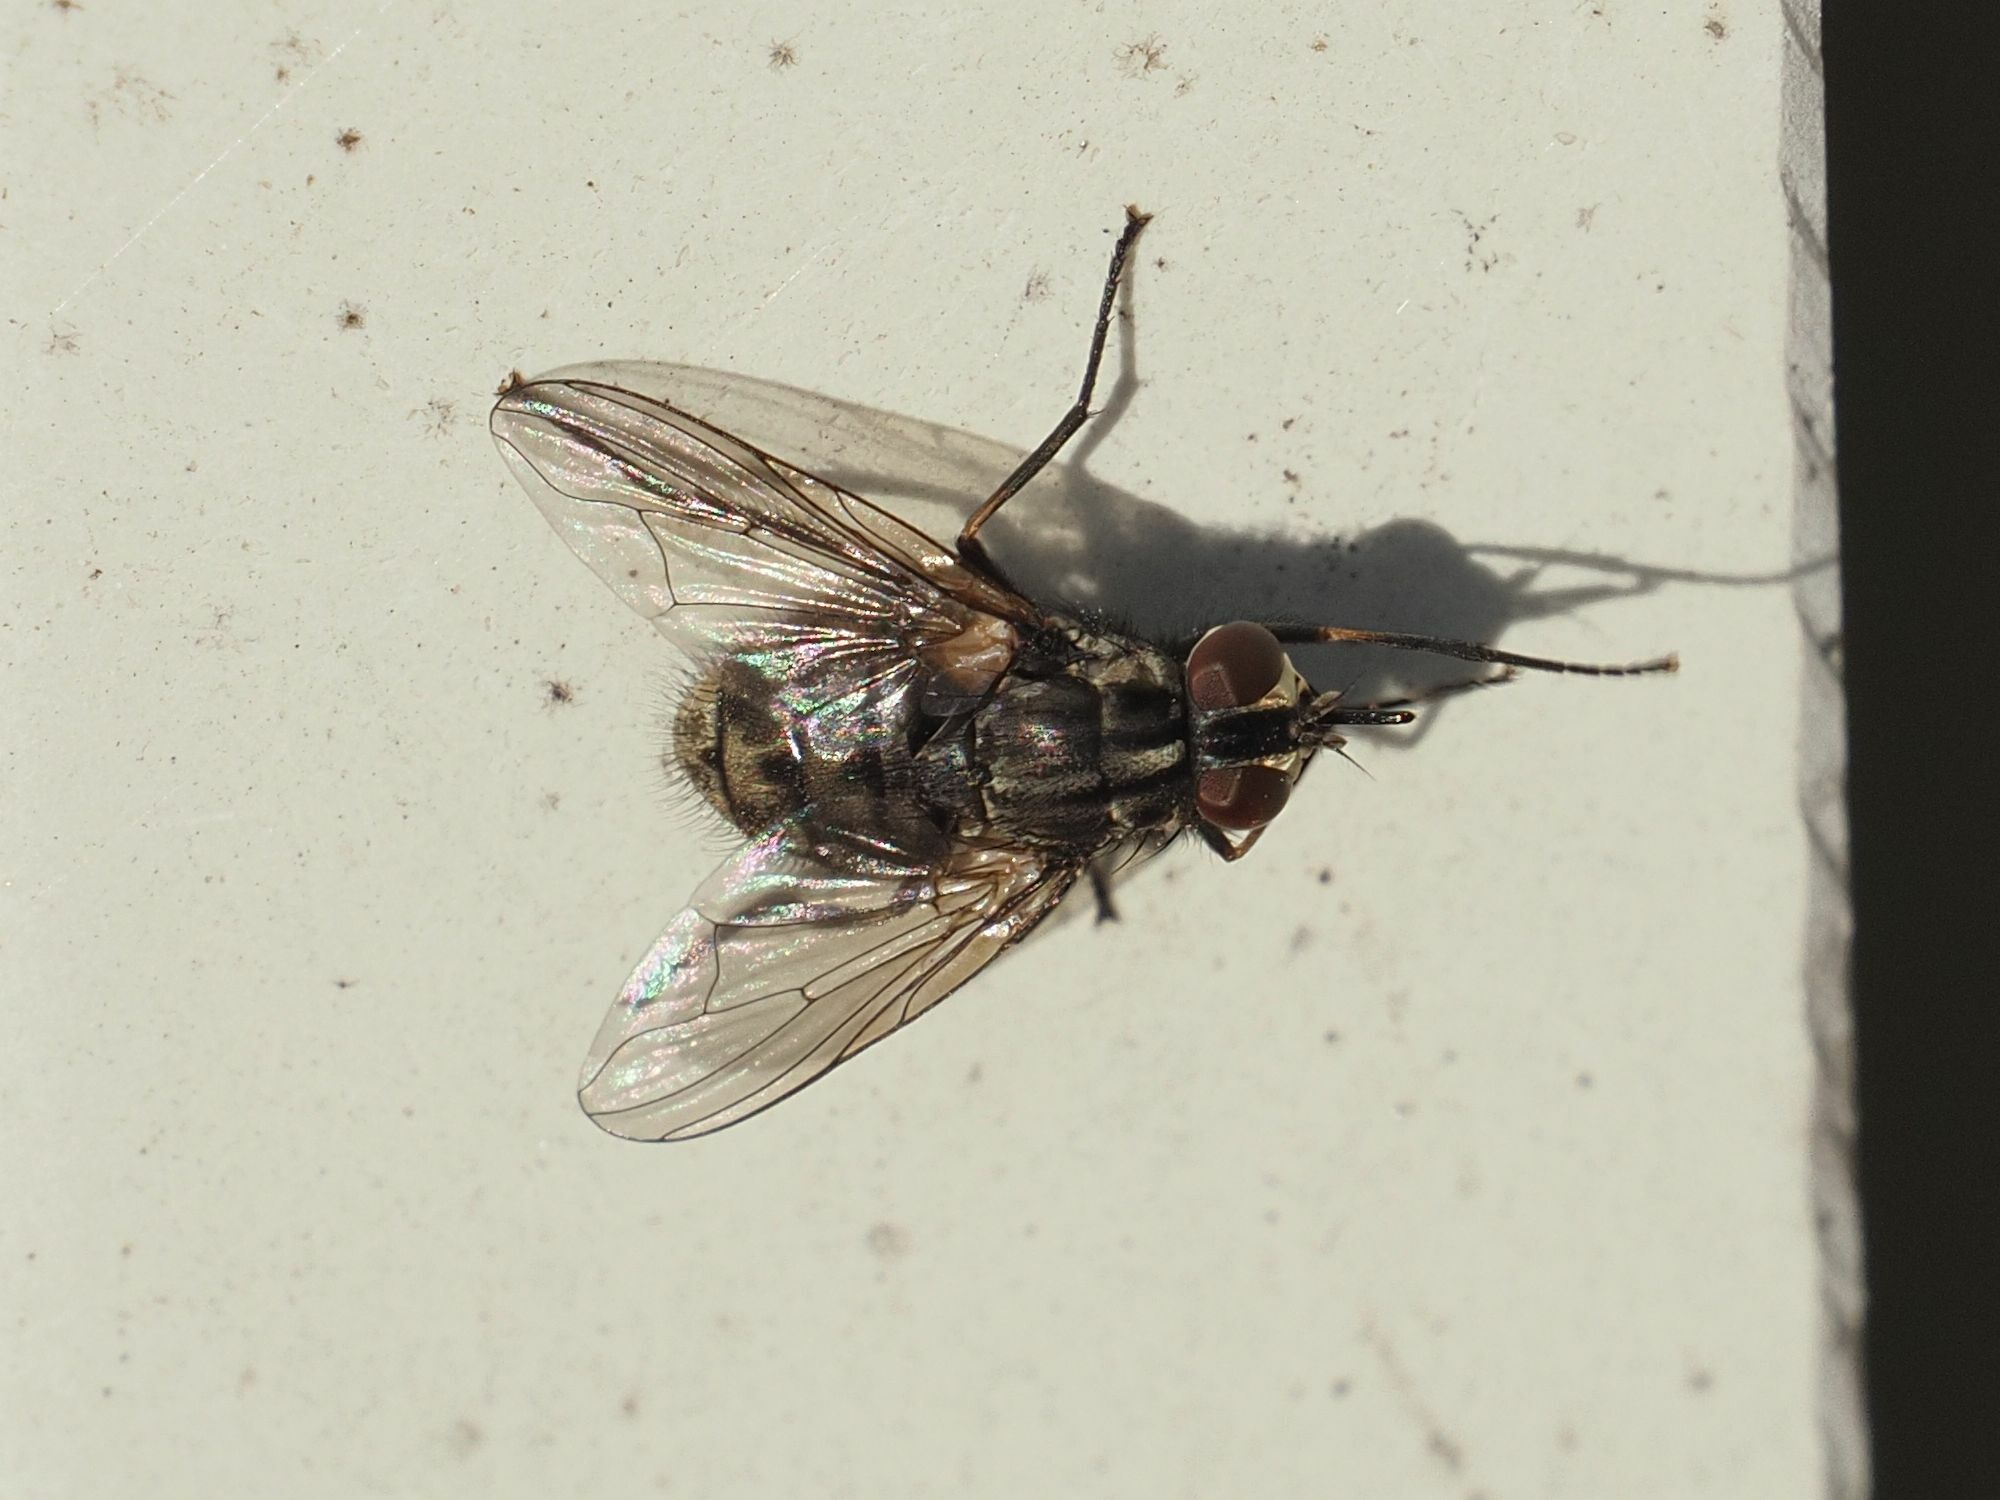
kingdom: Animalia
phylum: Arthropoda
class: Insecta
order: Diptera
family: Muscidae
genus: Stomoxys
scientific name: Stomoxys calcitrans
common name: Stable fly
